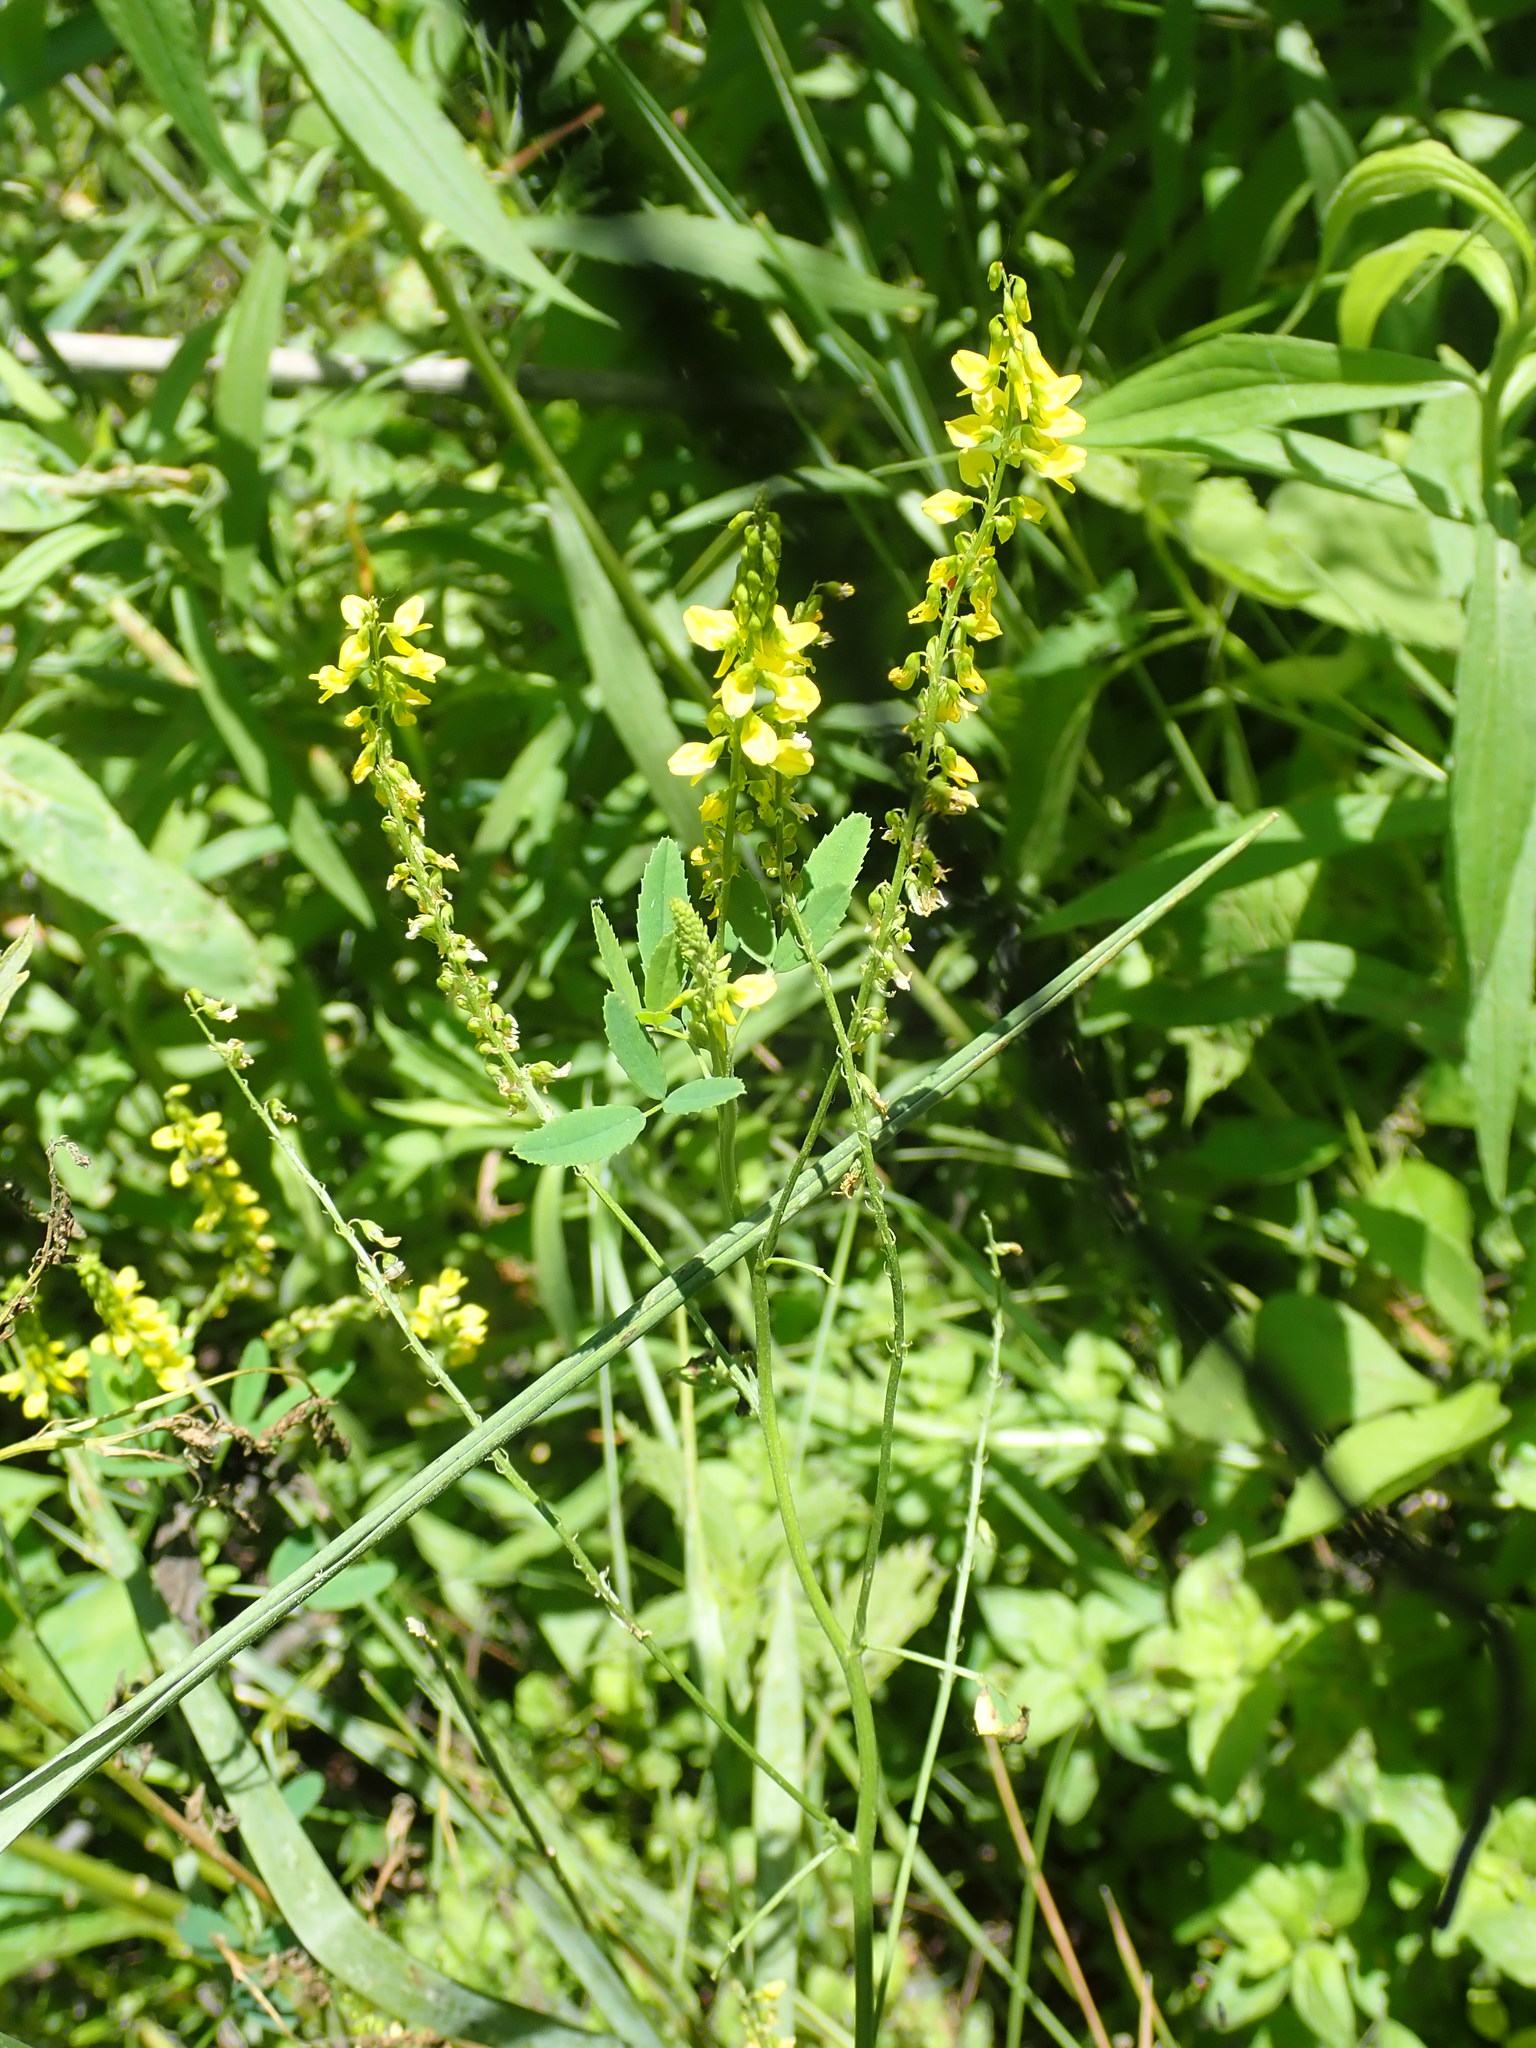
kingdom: Plantae
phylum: Tracheophyta
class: Magnoliopsida
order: Fabales
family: Fabaceae
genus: Melilotus
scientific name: Melilotus officinalis
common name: Sweetclover
